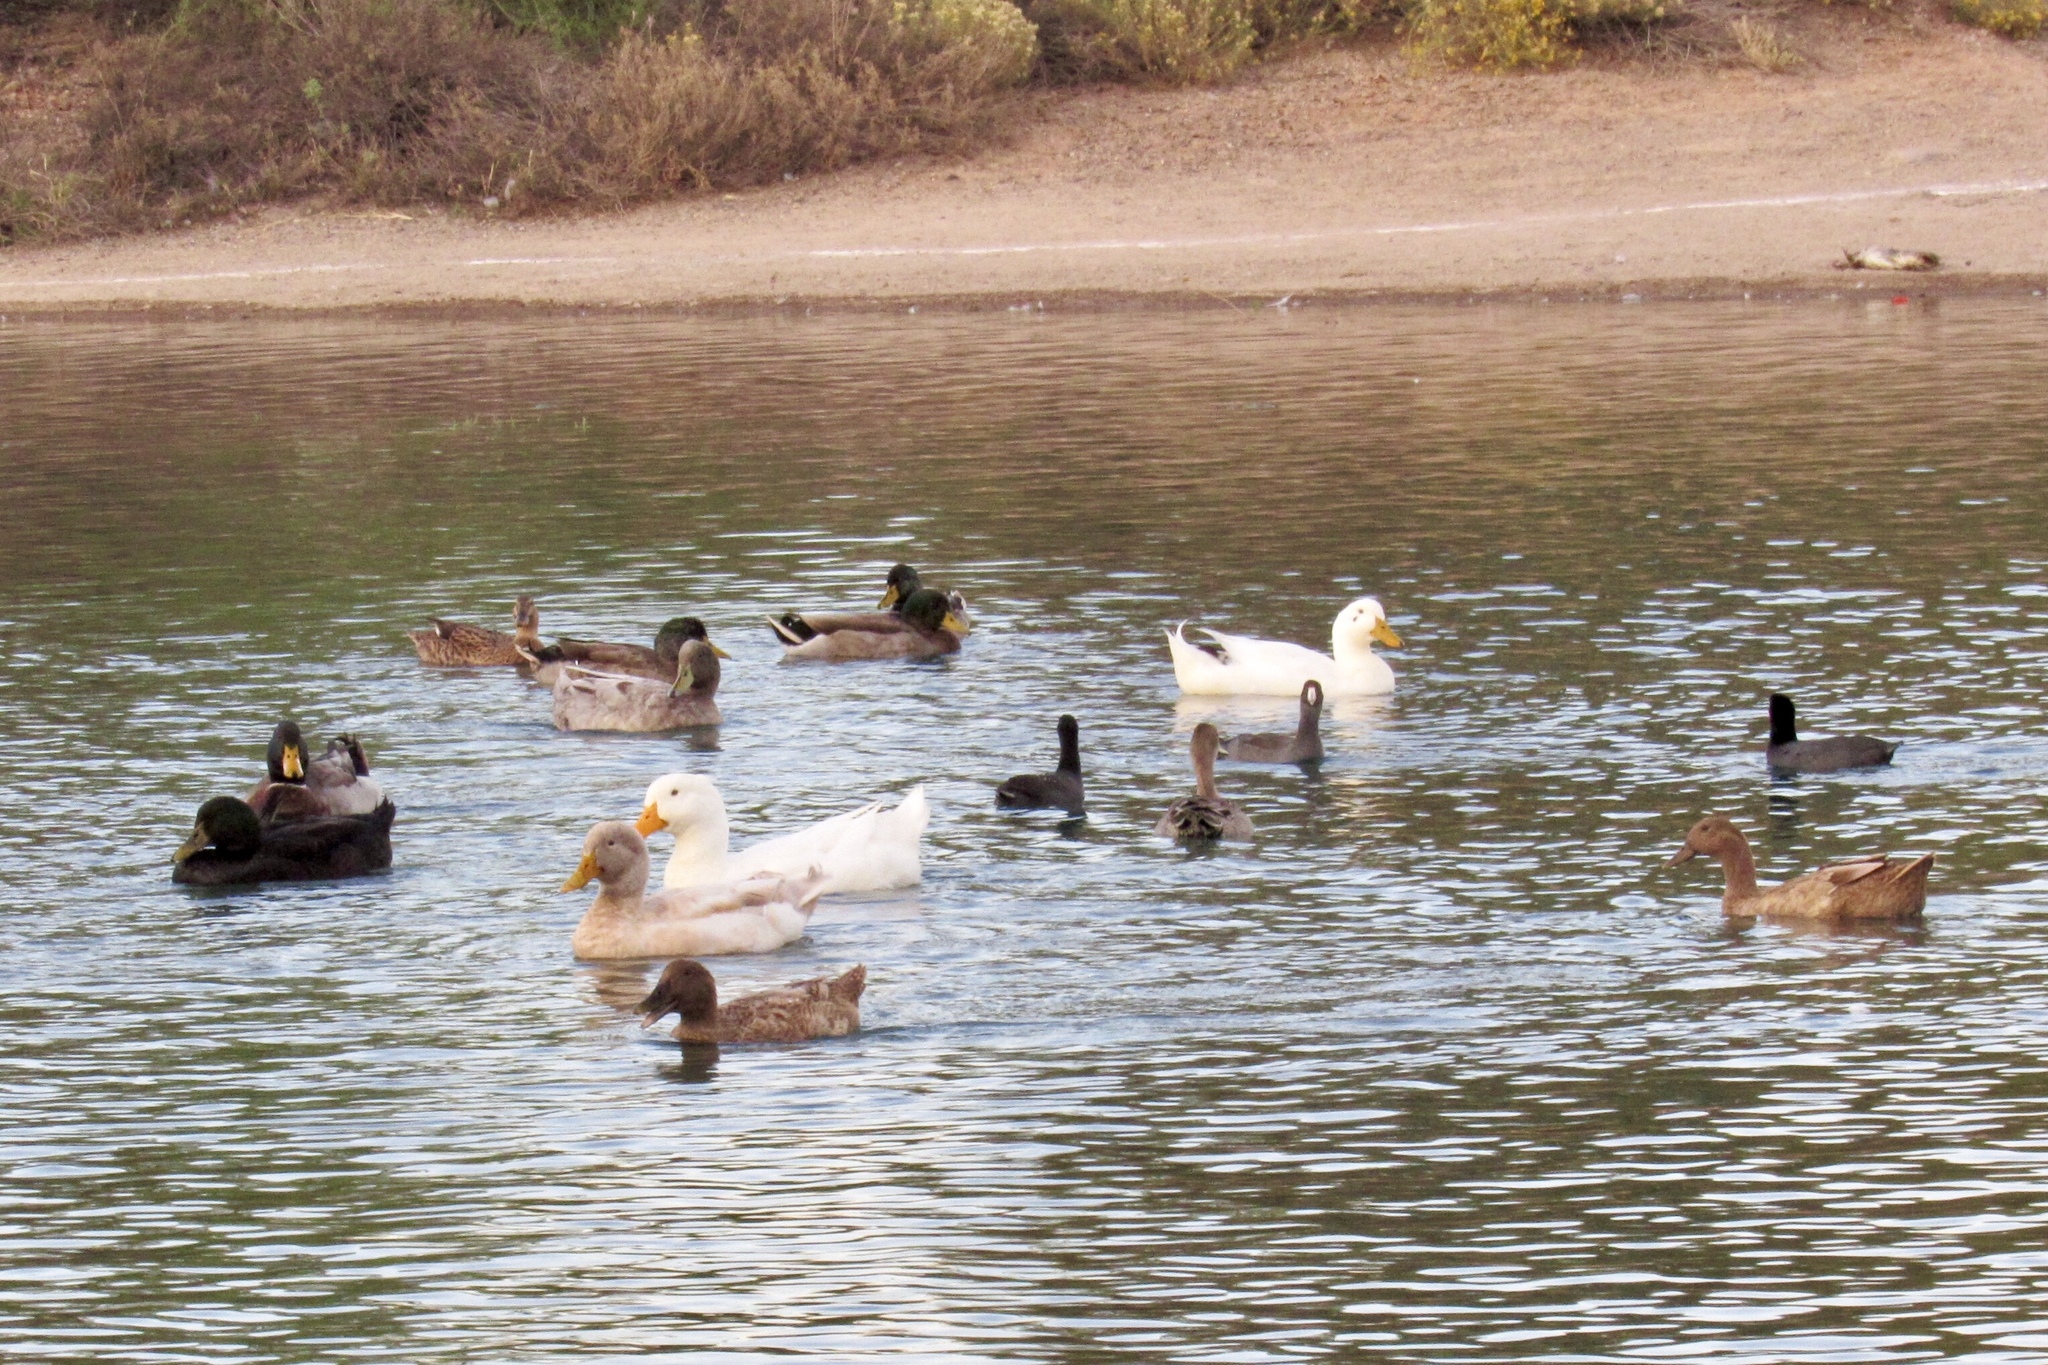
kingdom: Animalia
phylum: Chordata
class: Aves
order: Anseriformes
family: Anatidae
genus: Anas
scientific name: Anas platyrhynchos
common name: Mallard
